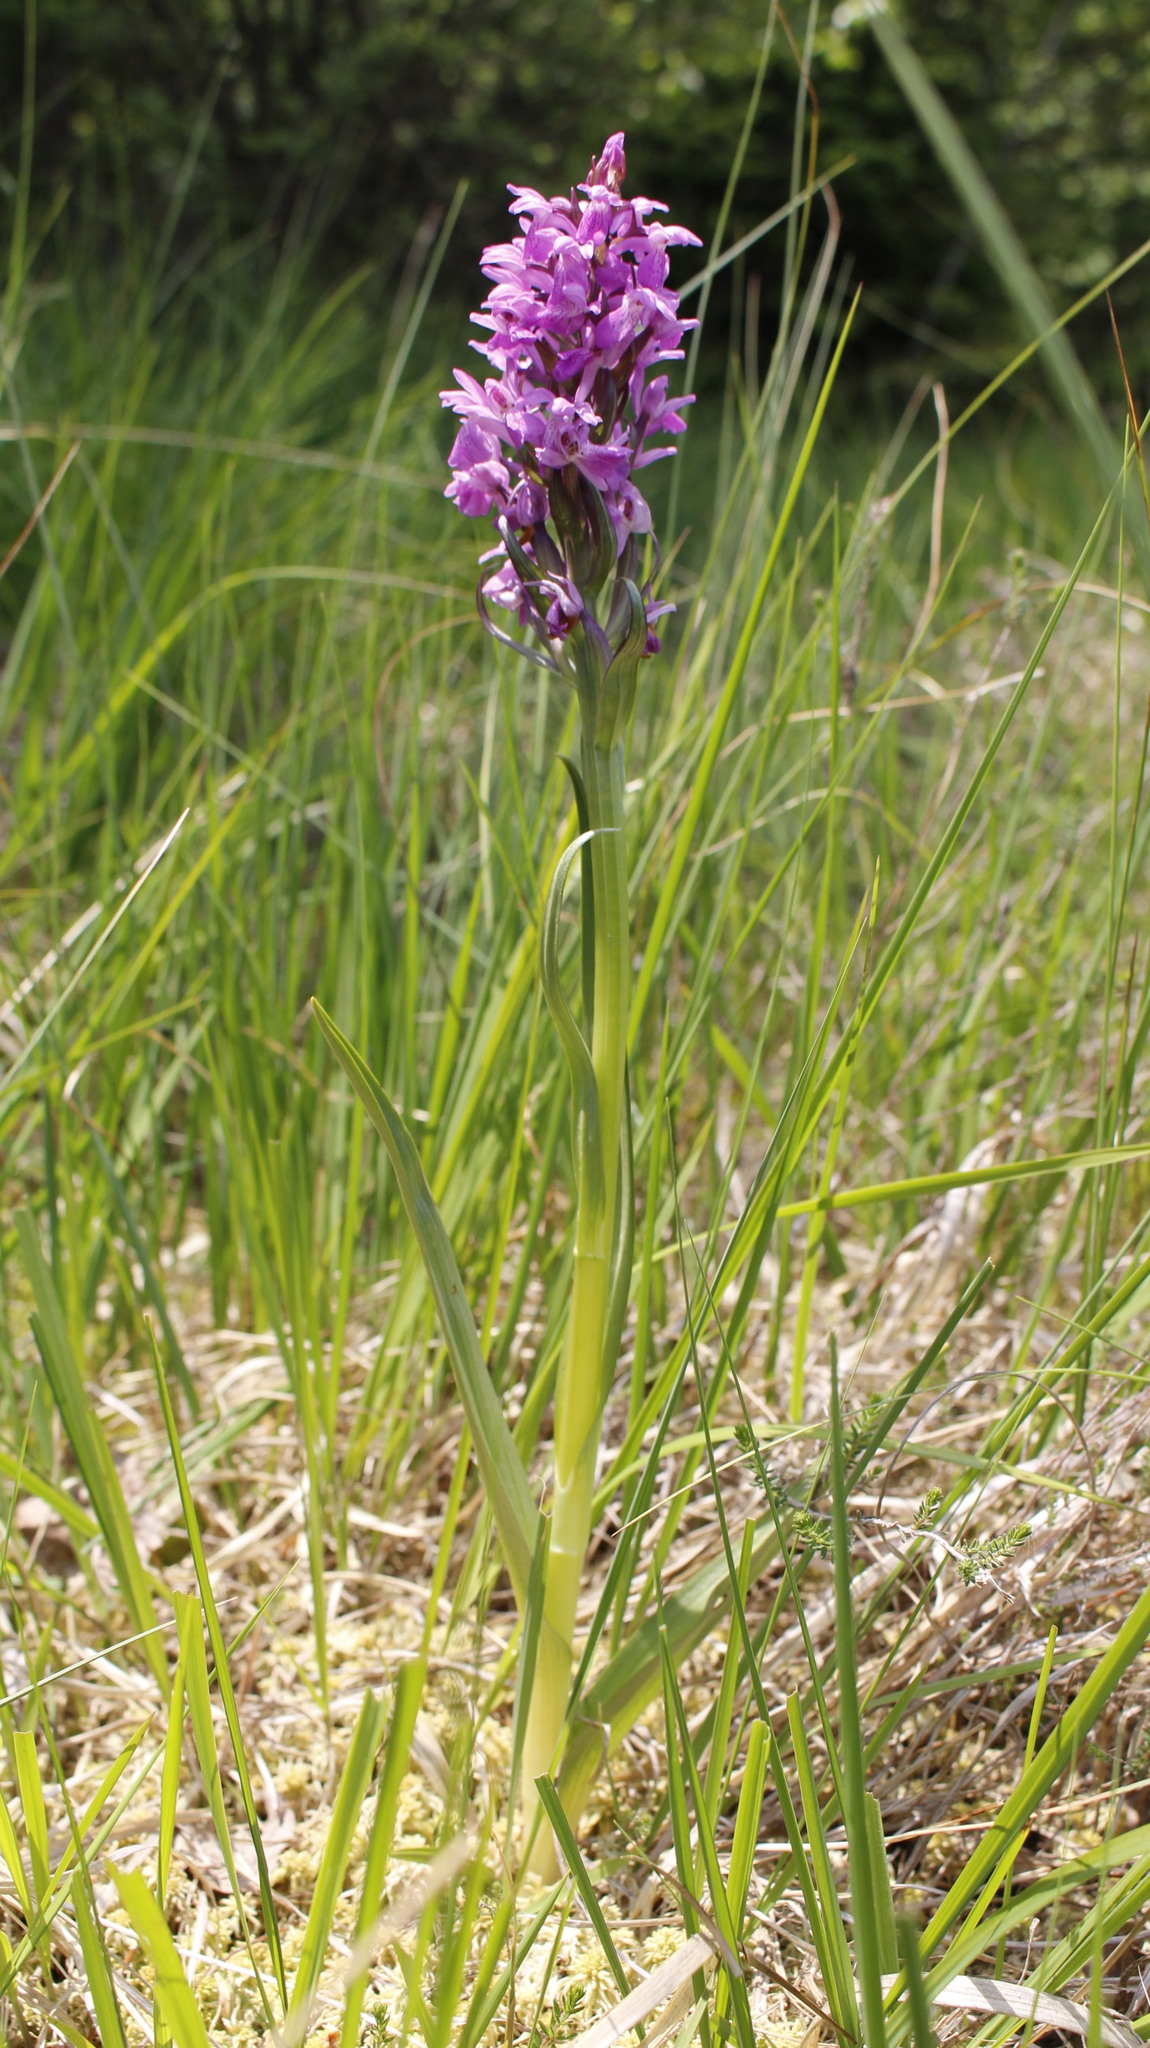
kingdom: Plantae
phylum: Tracheophyta
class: Liliopsida
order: Asparagales
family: Orchidaceae
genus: Dactylorhiza
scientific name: Dactylorhiza majalis
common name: Marsh orchid
